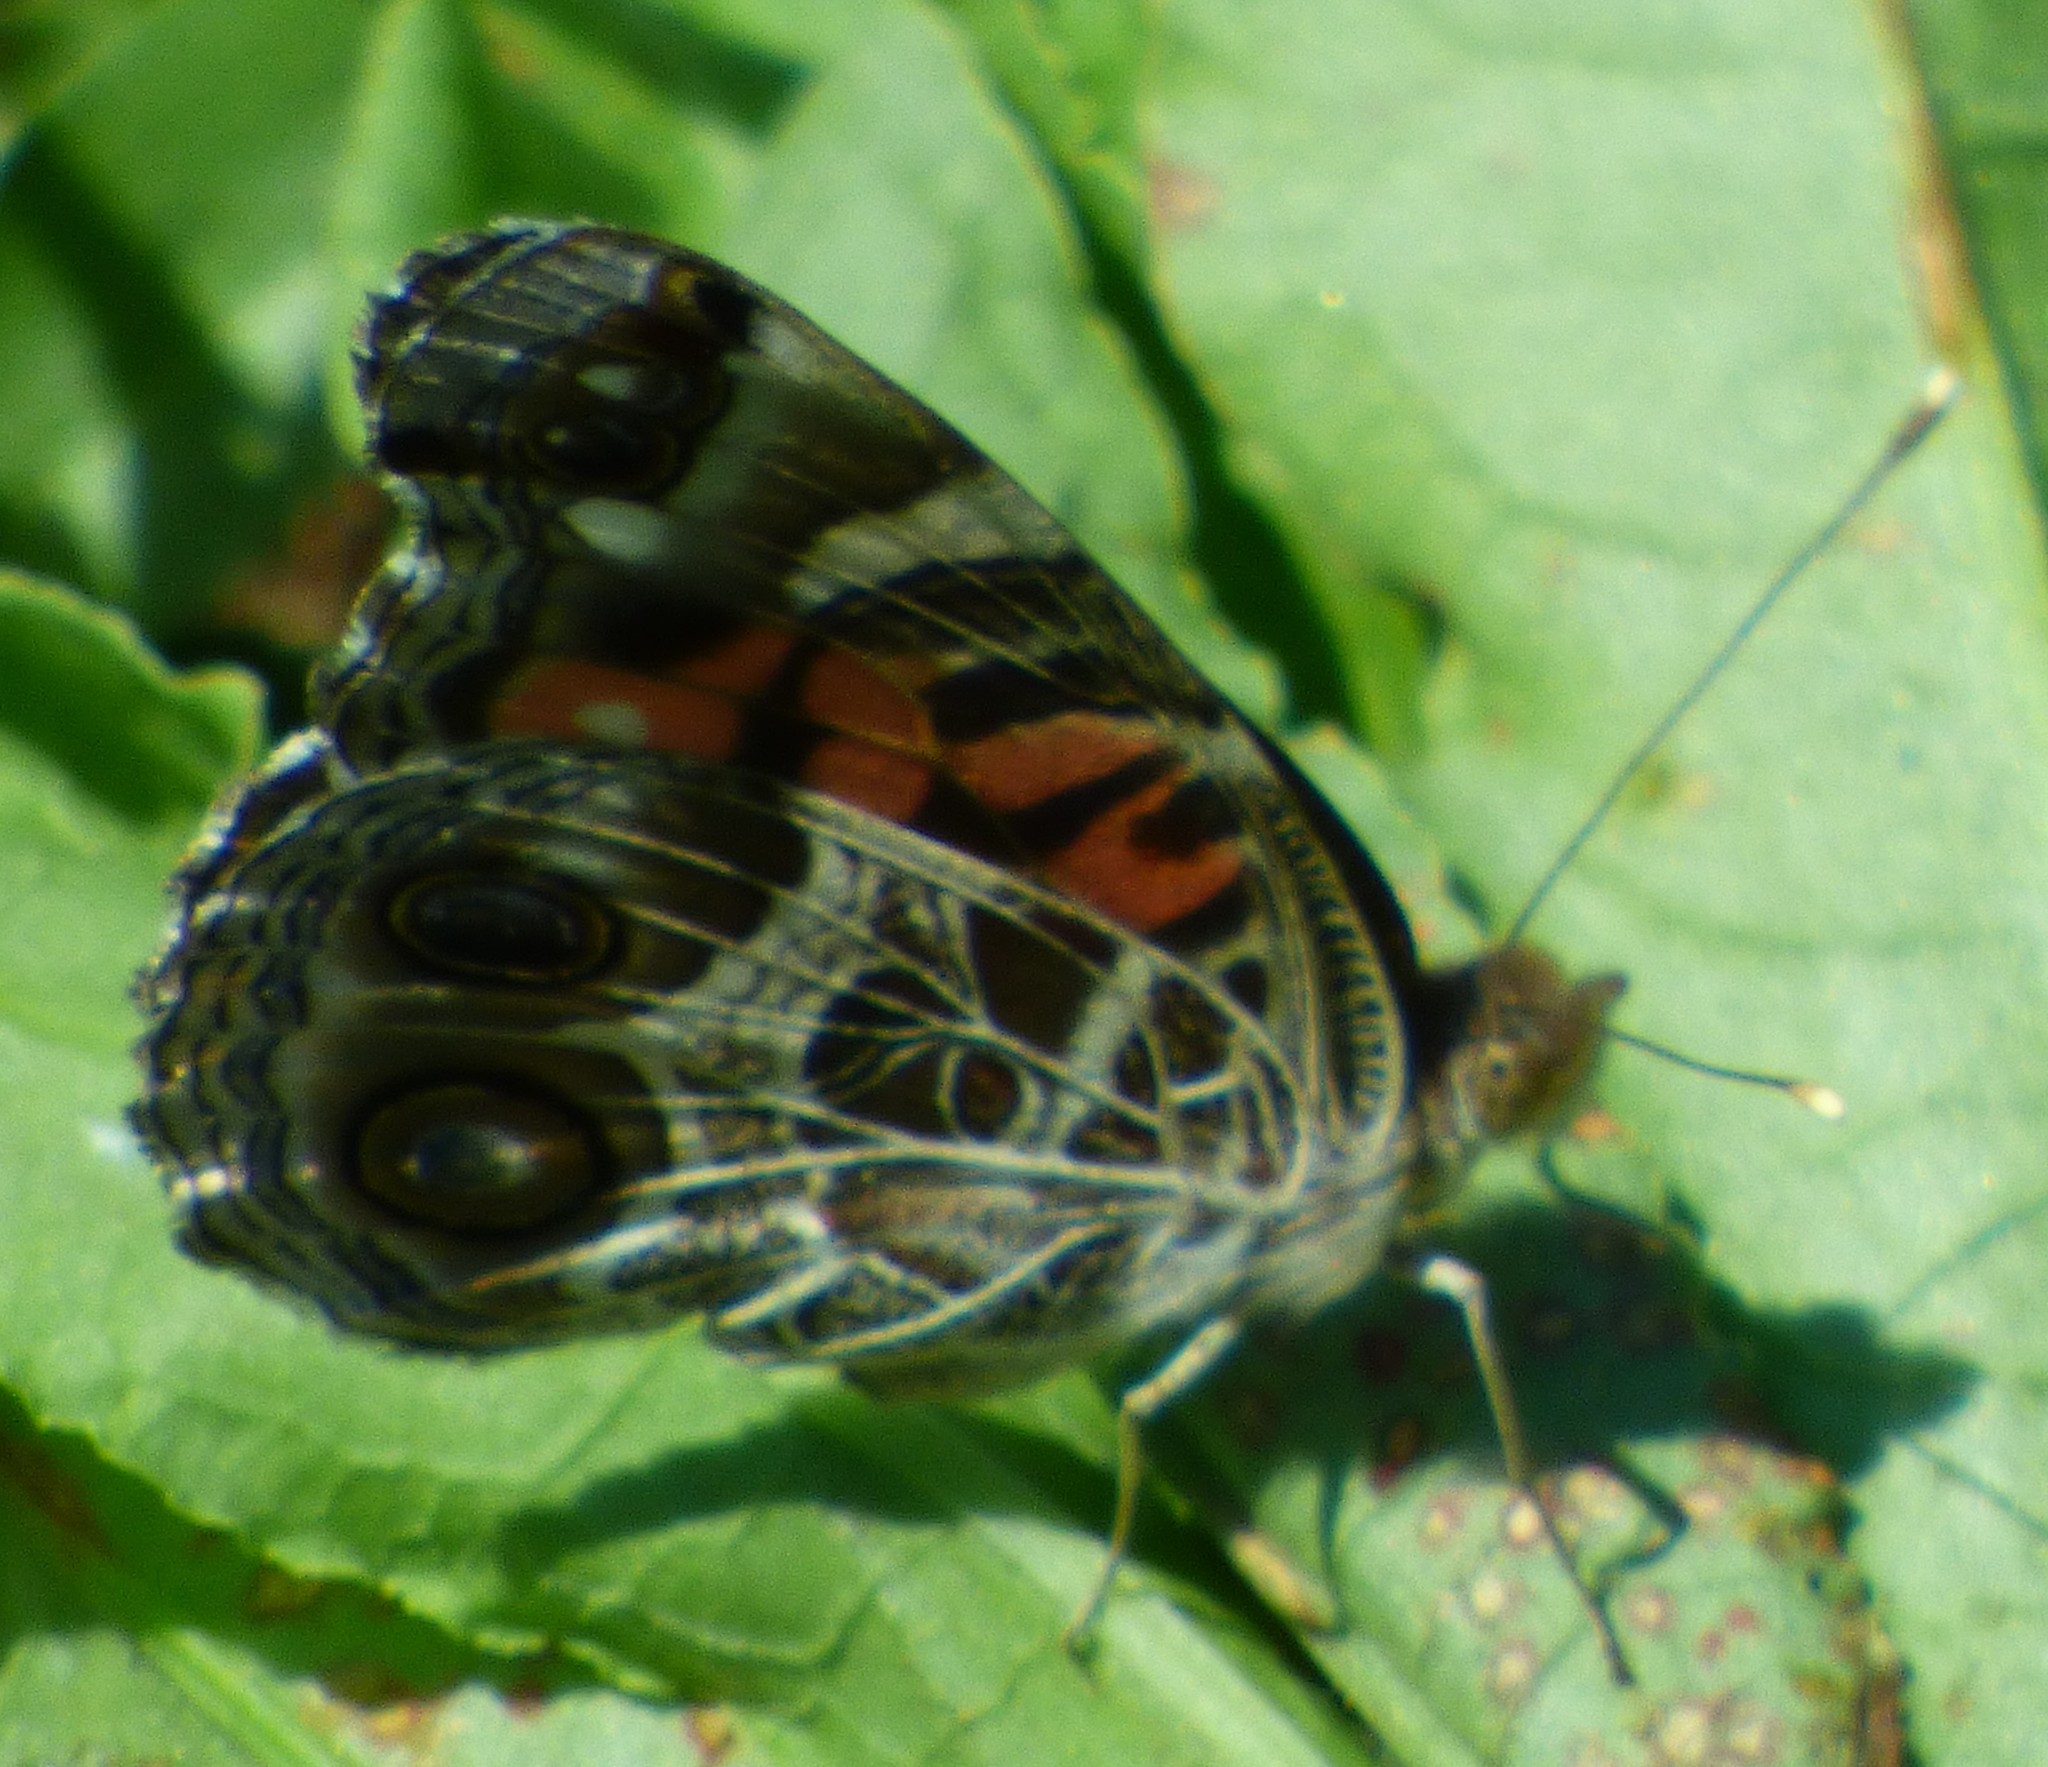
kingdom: Animalia
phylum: Arthropoda
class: Insecta
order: Lepidoptera
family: Nymphalidae
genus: Vanessa
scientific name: Vanessa virginiensis
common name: American lady
